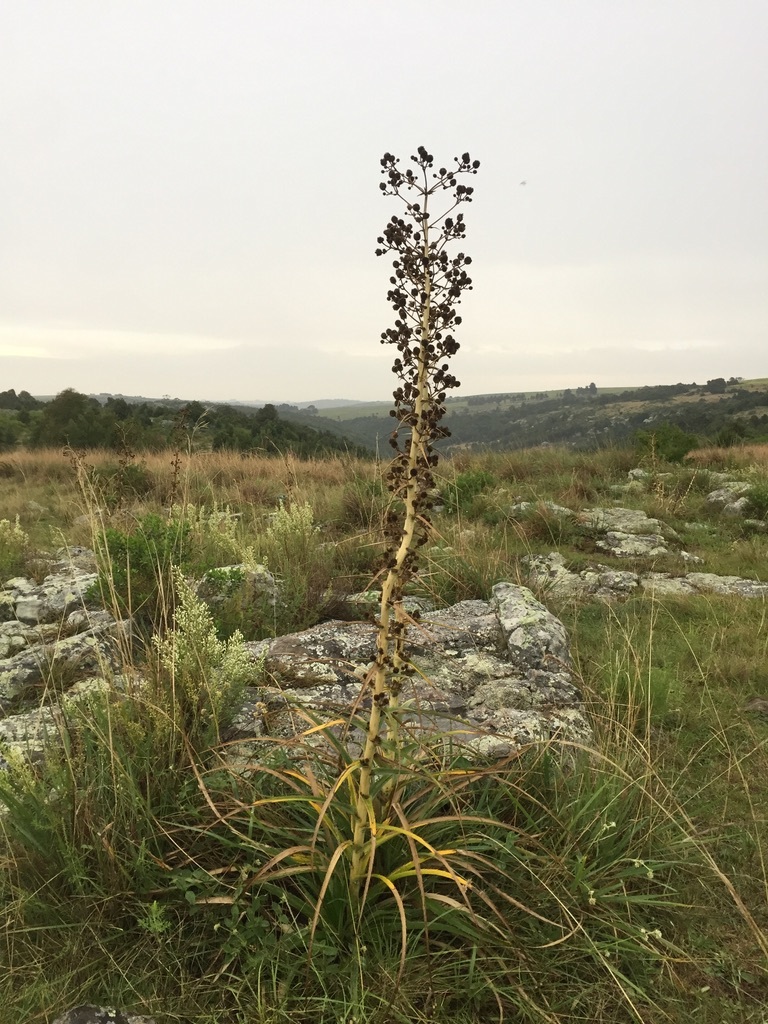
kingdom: Plantae
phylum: Tracheophyta
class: Magnoliopsida
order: Apiales
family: Apiaceae
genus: Eryngium
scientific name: Eryngium humboldtii
